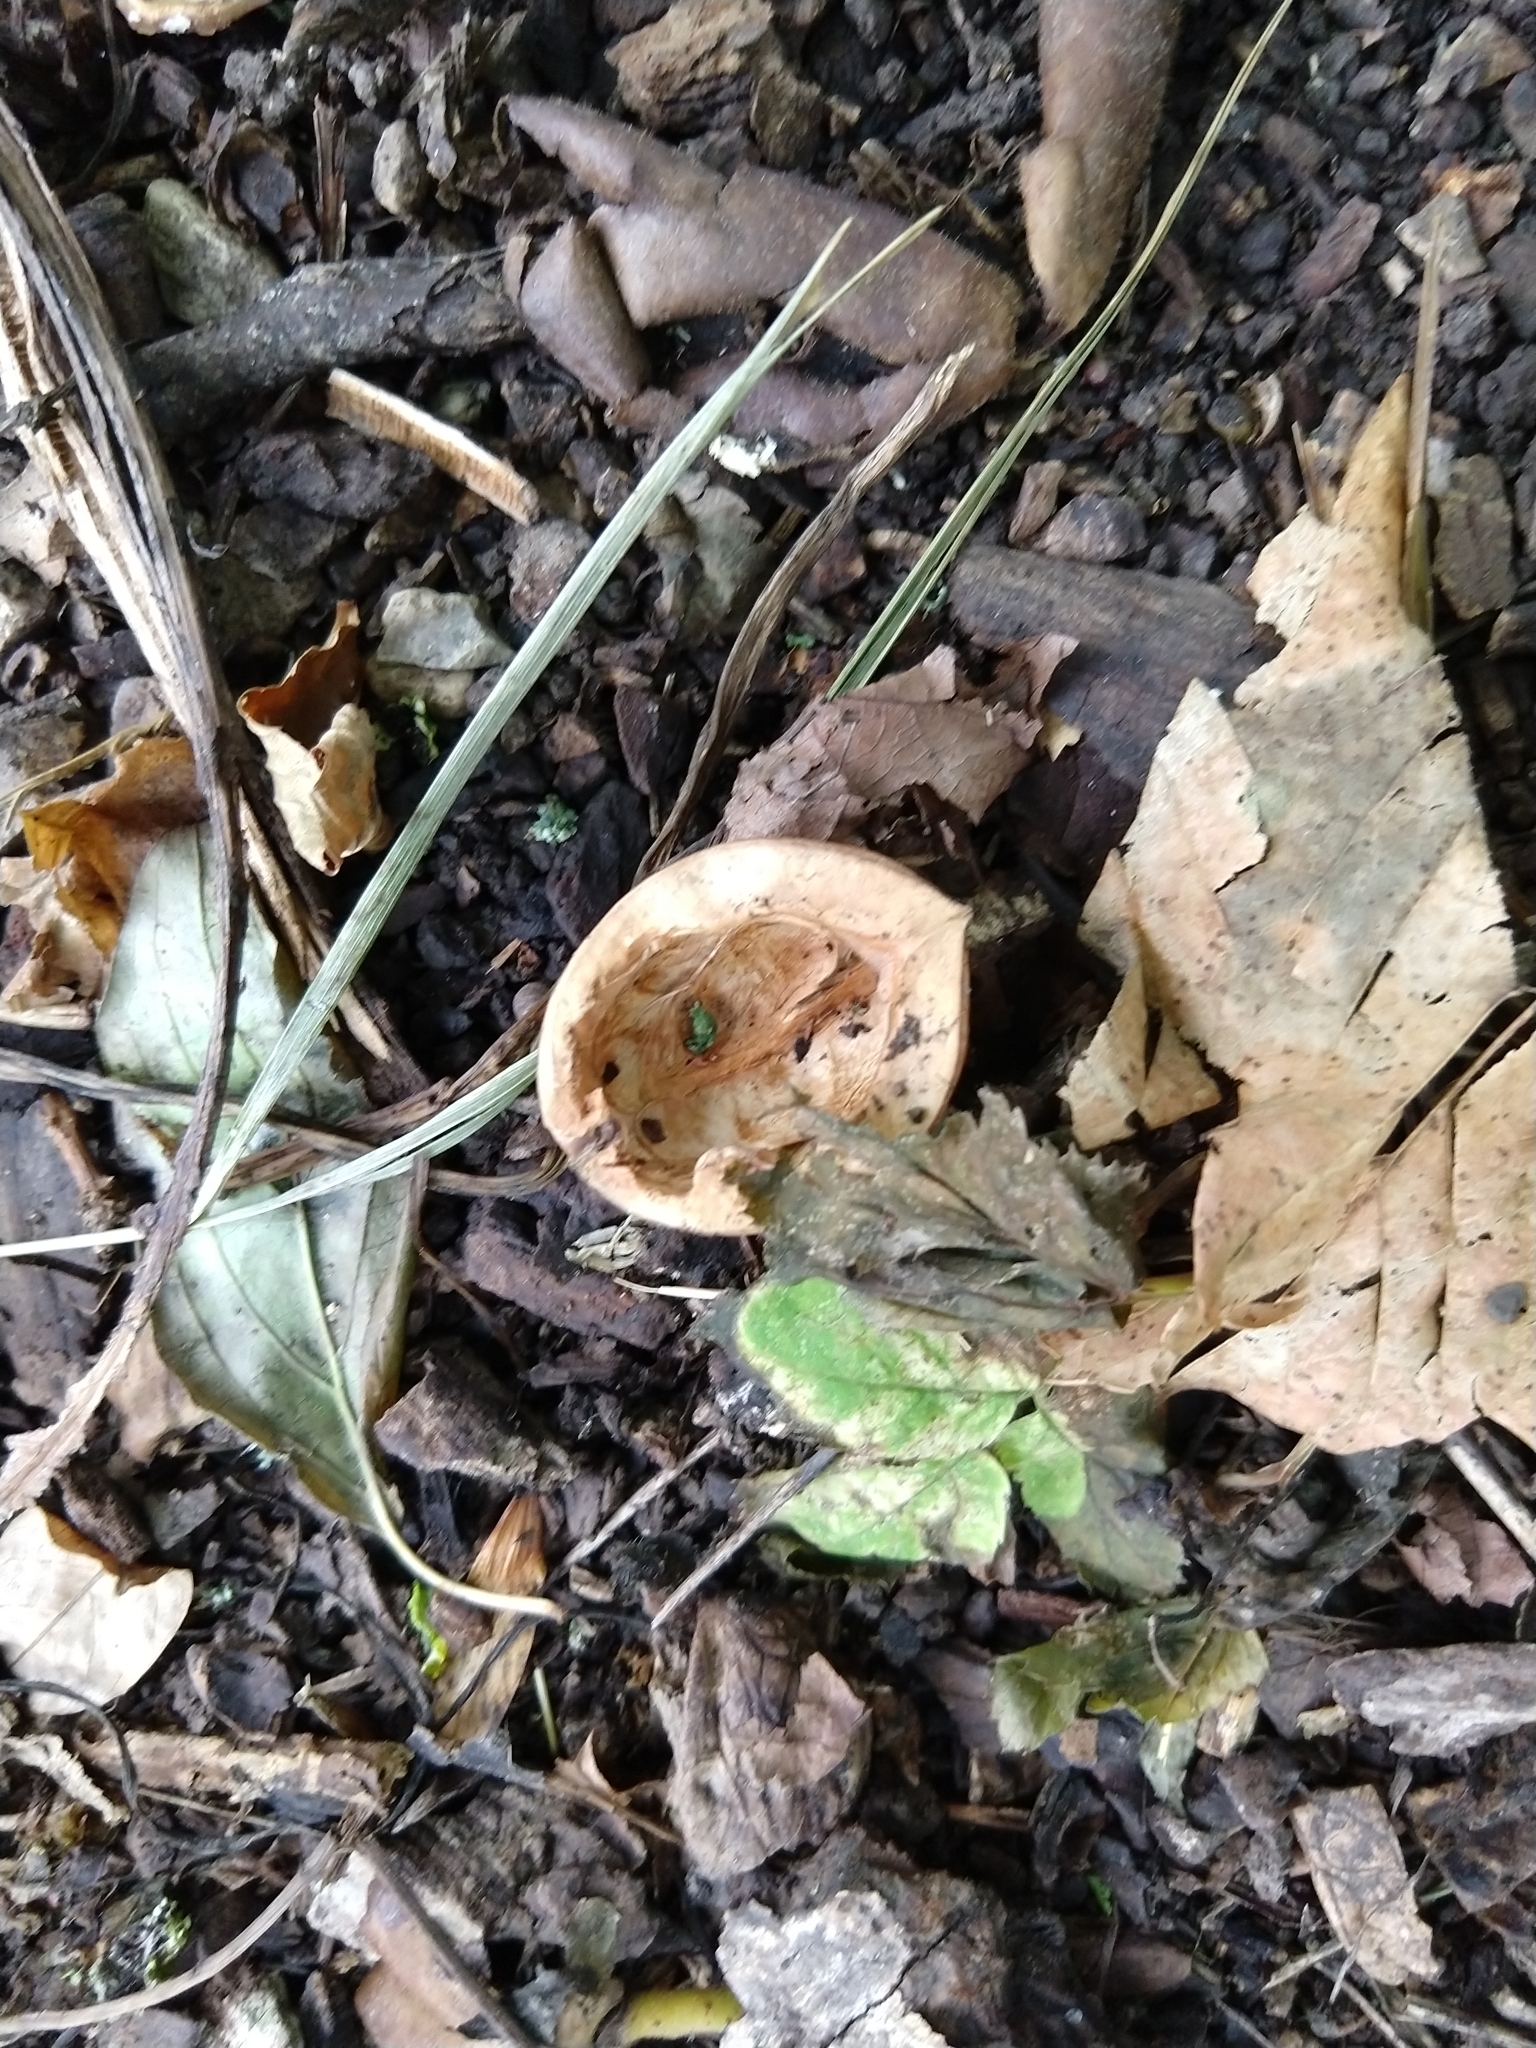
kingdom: Plantae
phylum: Tracheophyta
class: Magnoliopsida
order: Fagales
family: Juglandaceae
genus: Juglans
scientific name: Juglans regia
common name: Walnut
